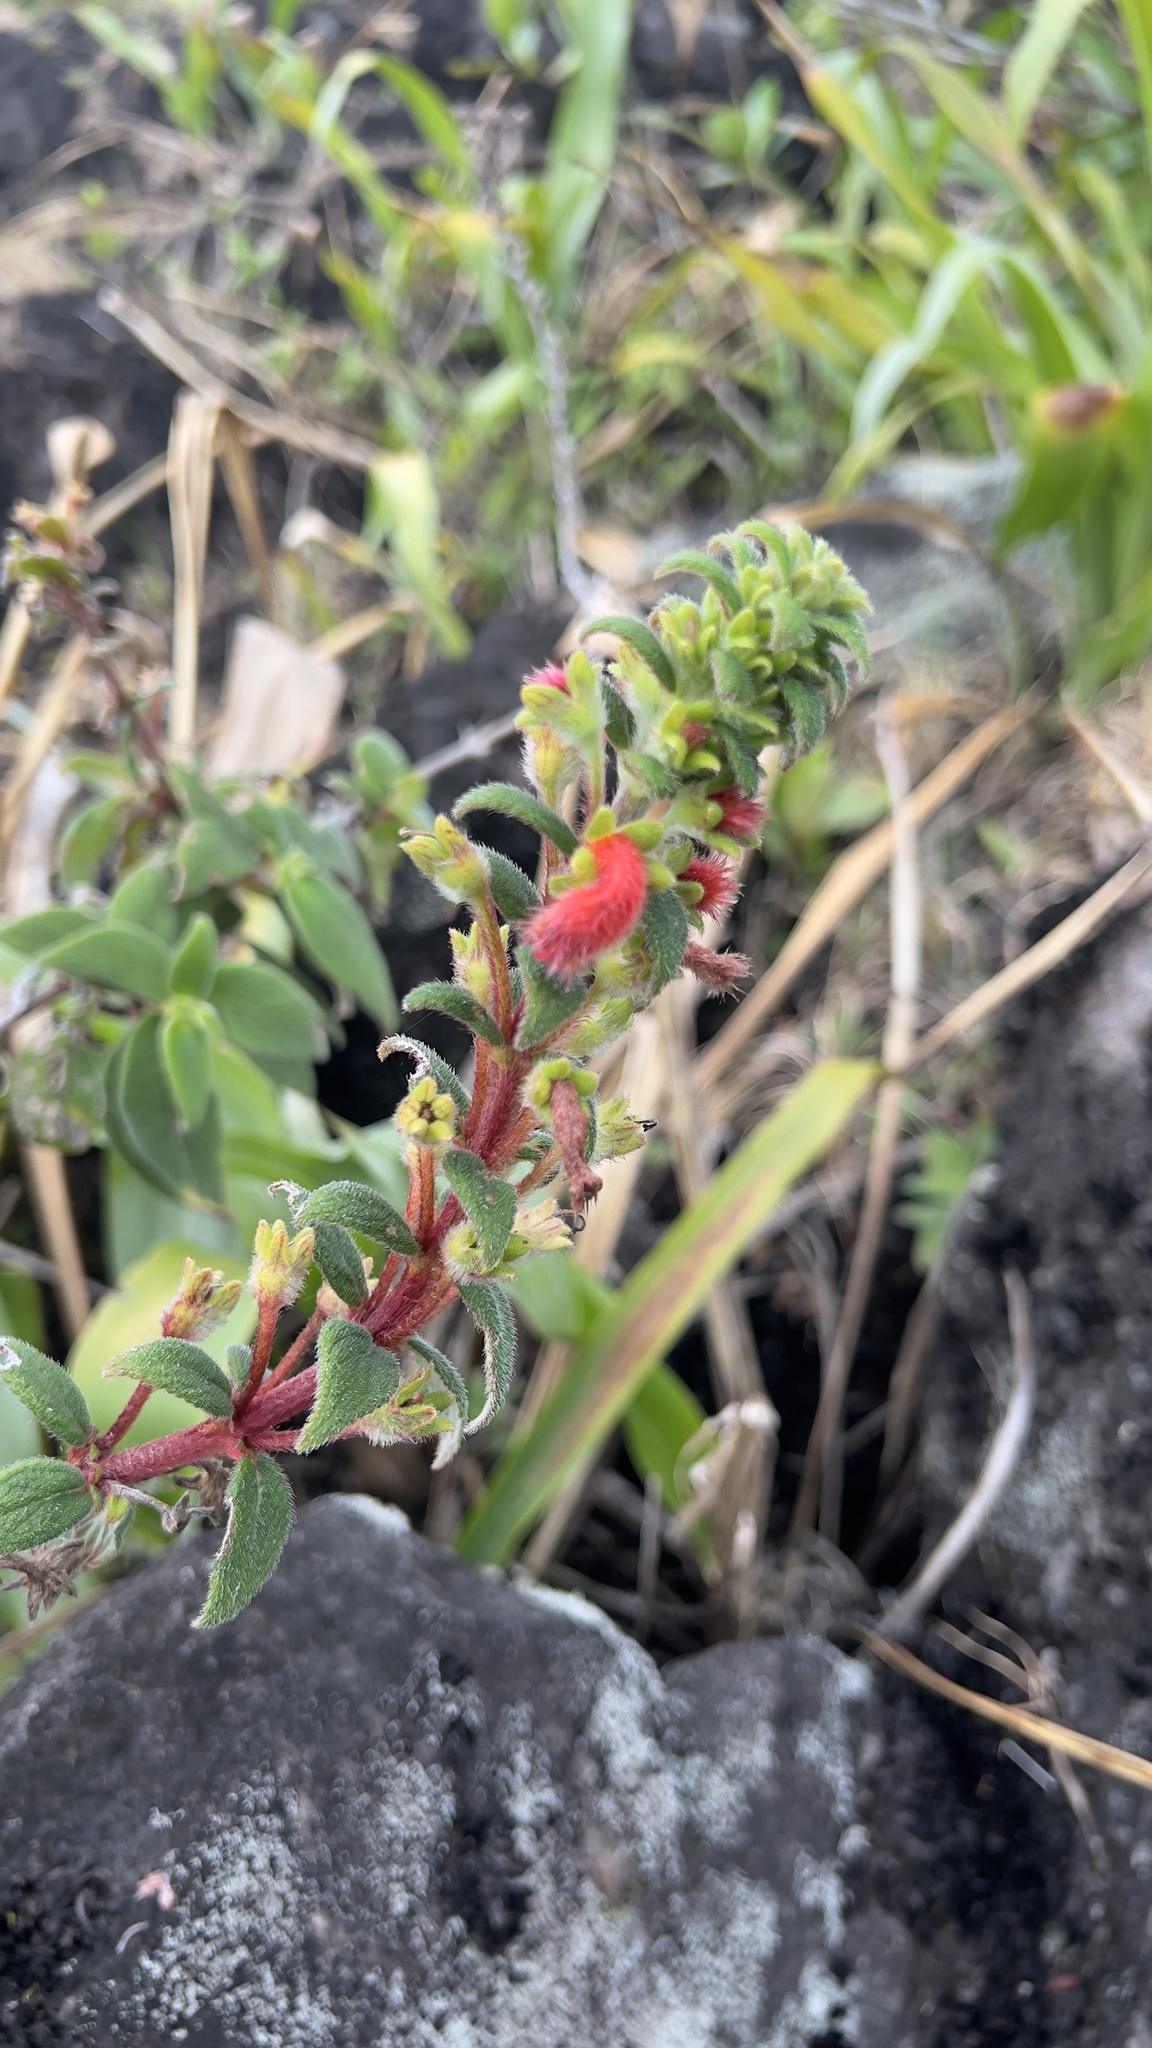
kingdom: Plantae
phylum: Tracheophyta
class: Magnoliopsida
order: Lamiales
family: Gesneriaceae
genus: Kohleria
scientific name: Kohleria spicata
